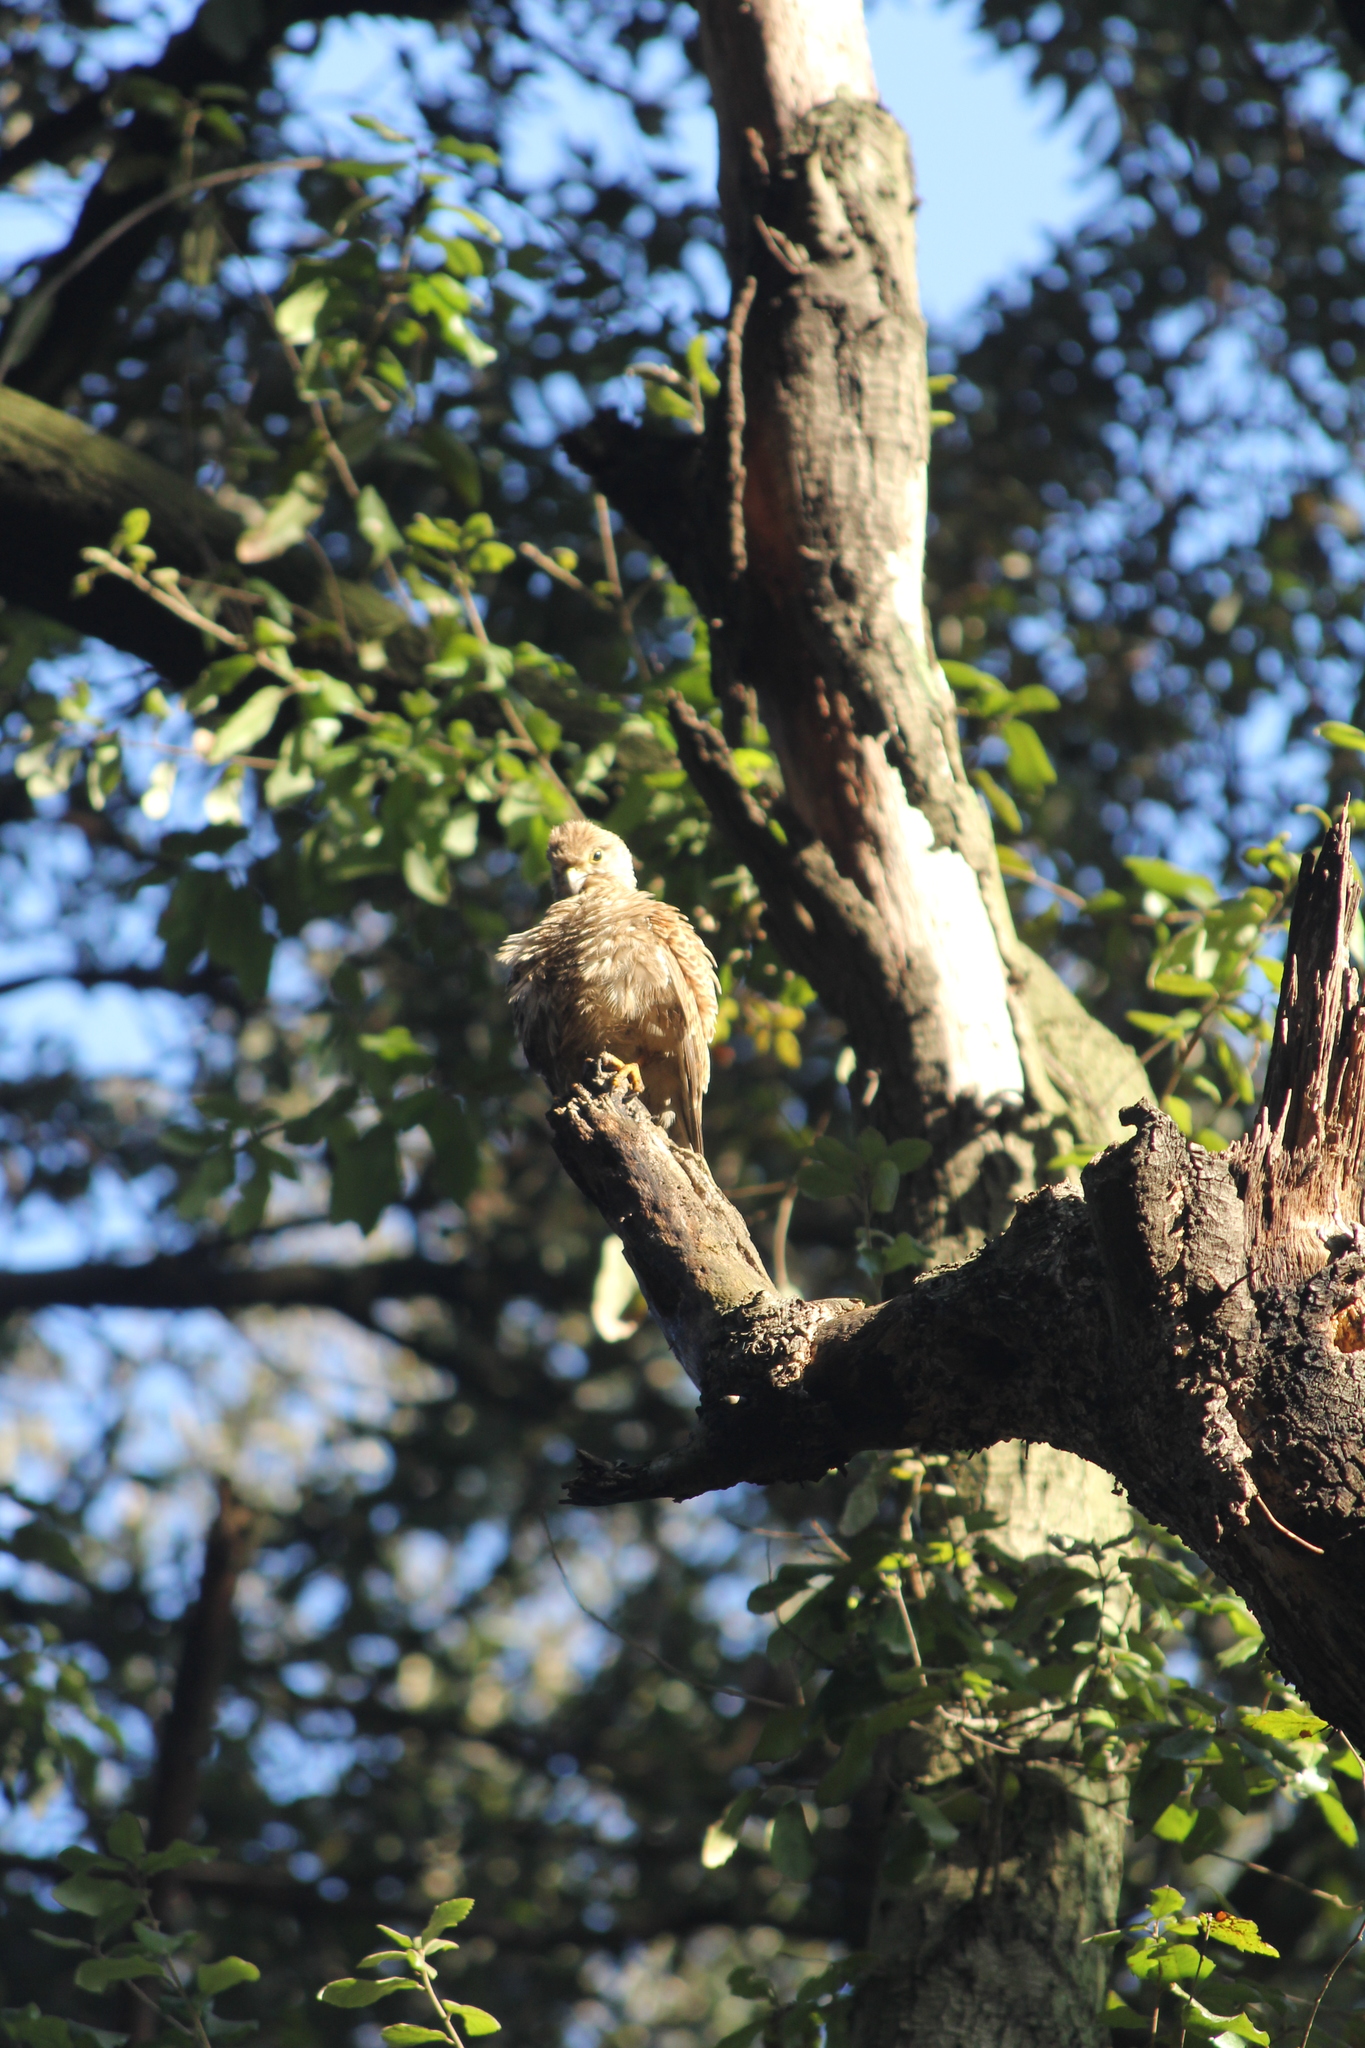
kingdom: Animalia
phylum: Chordata
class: Aves
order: Falconiformes
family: Falconidae
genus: Falco
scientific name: Falco tinnunculus
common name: Common kestrel
